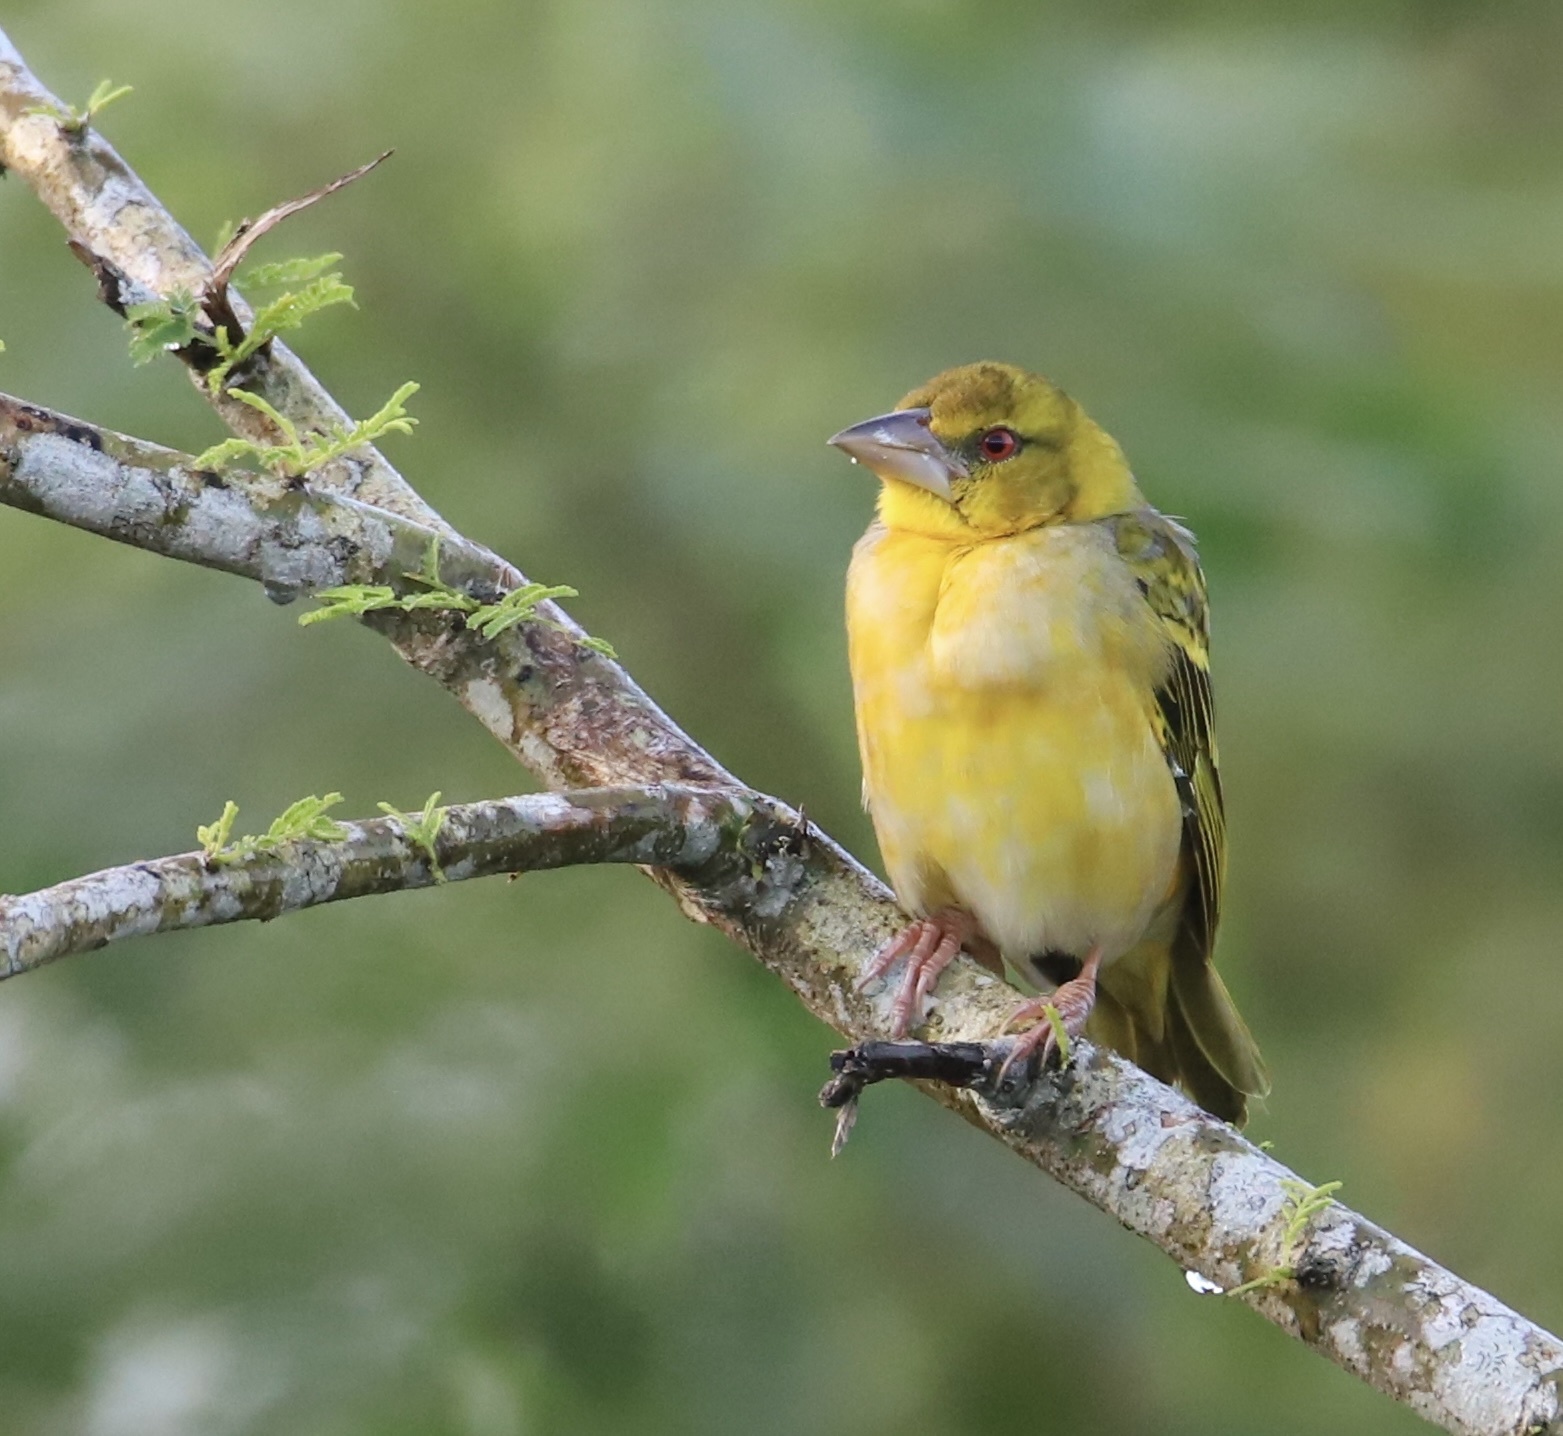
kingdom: Animalia
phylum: Chordata
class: Aves
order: Passeriformes
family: Ploceidae
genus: Ploceus
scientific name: Ploceus cucullatus
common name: Village weaver
